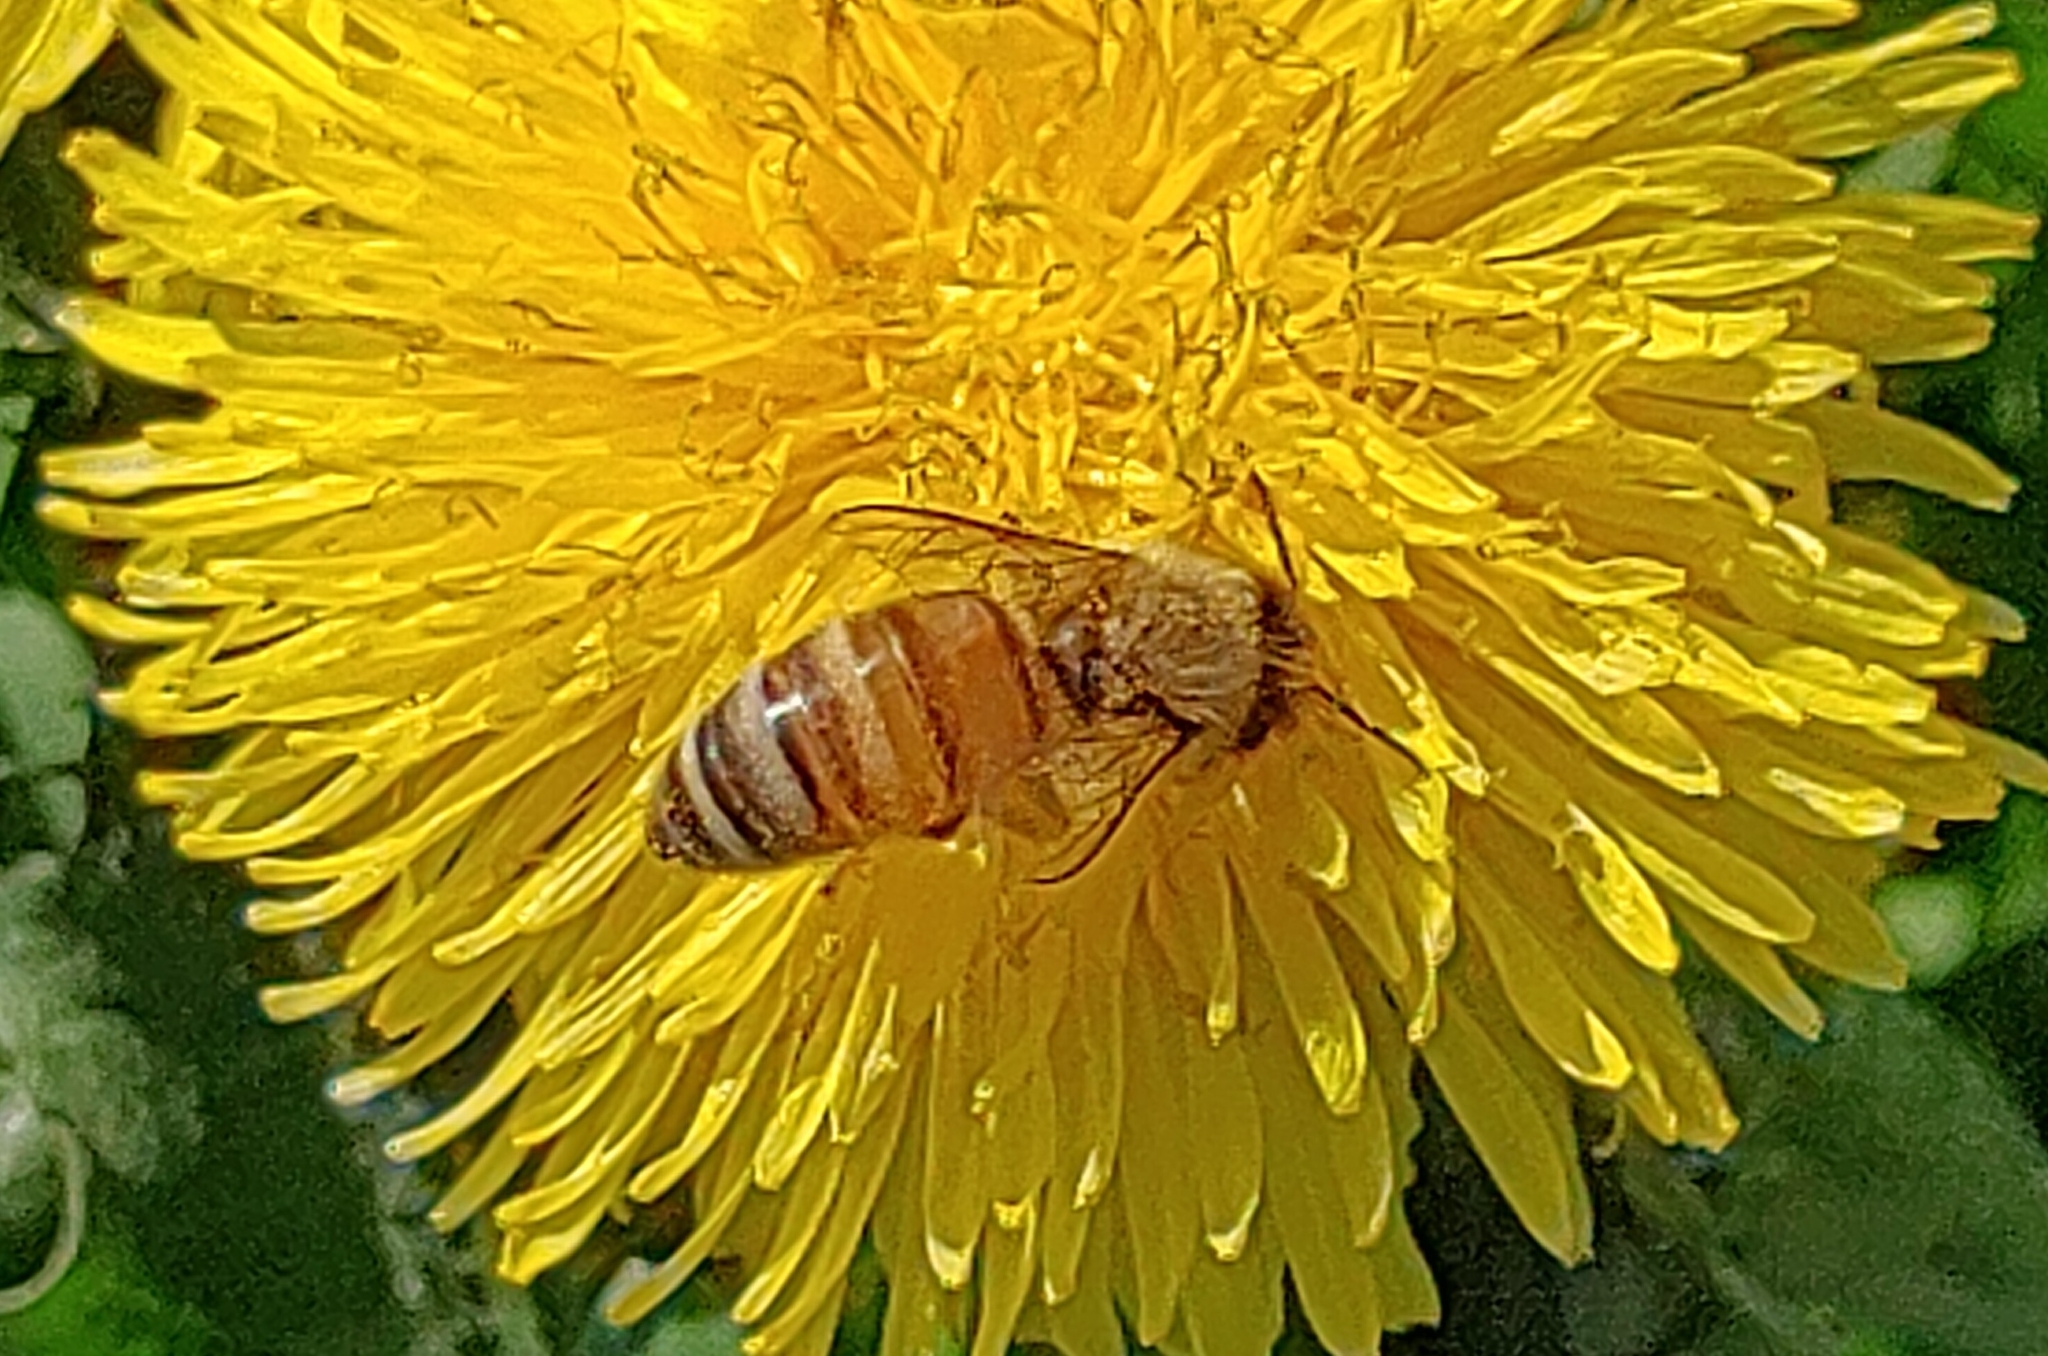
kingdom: Animalia
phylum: Arthropoda
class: Insecta
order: Hymenoptera
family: Apidae
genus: Apis
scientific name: Apis mellifera
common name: Honey bee
